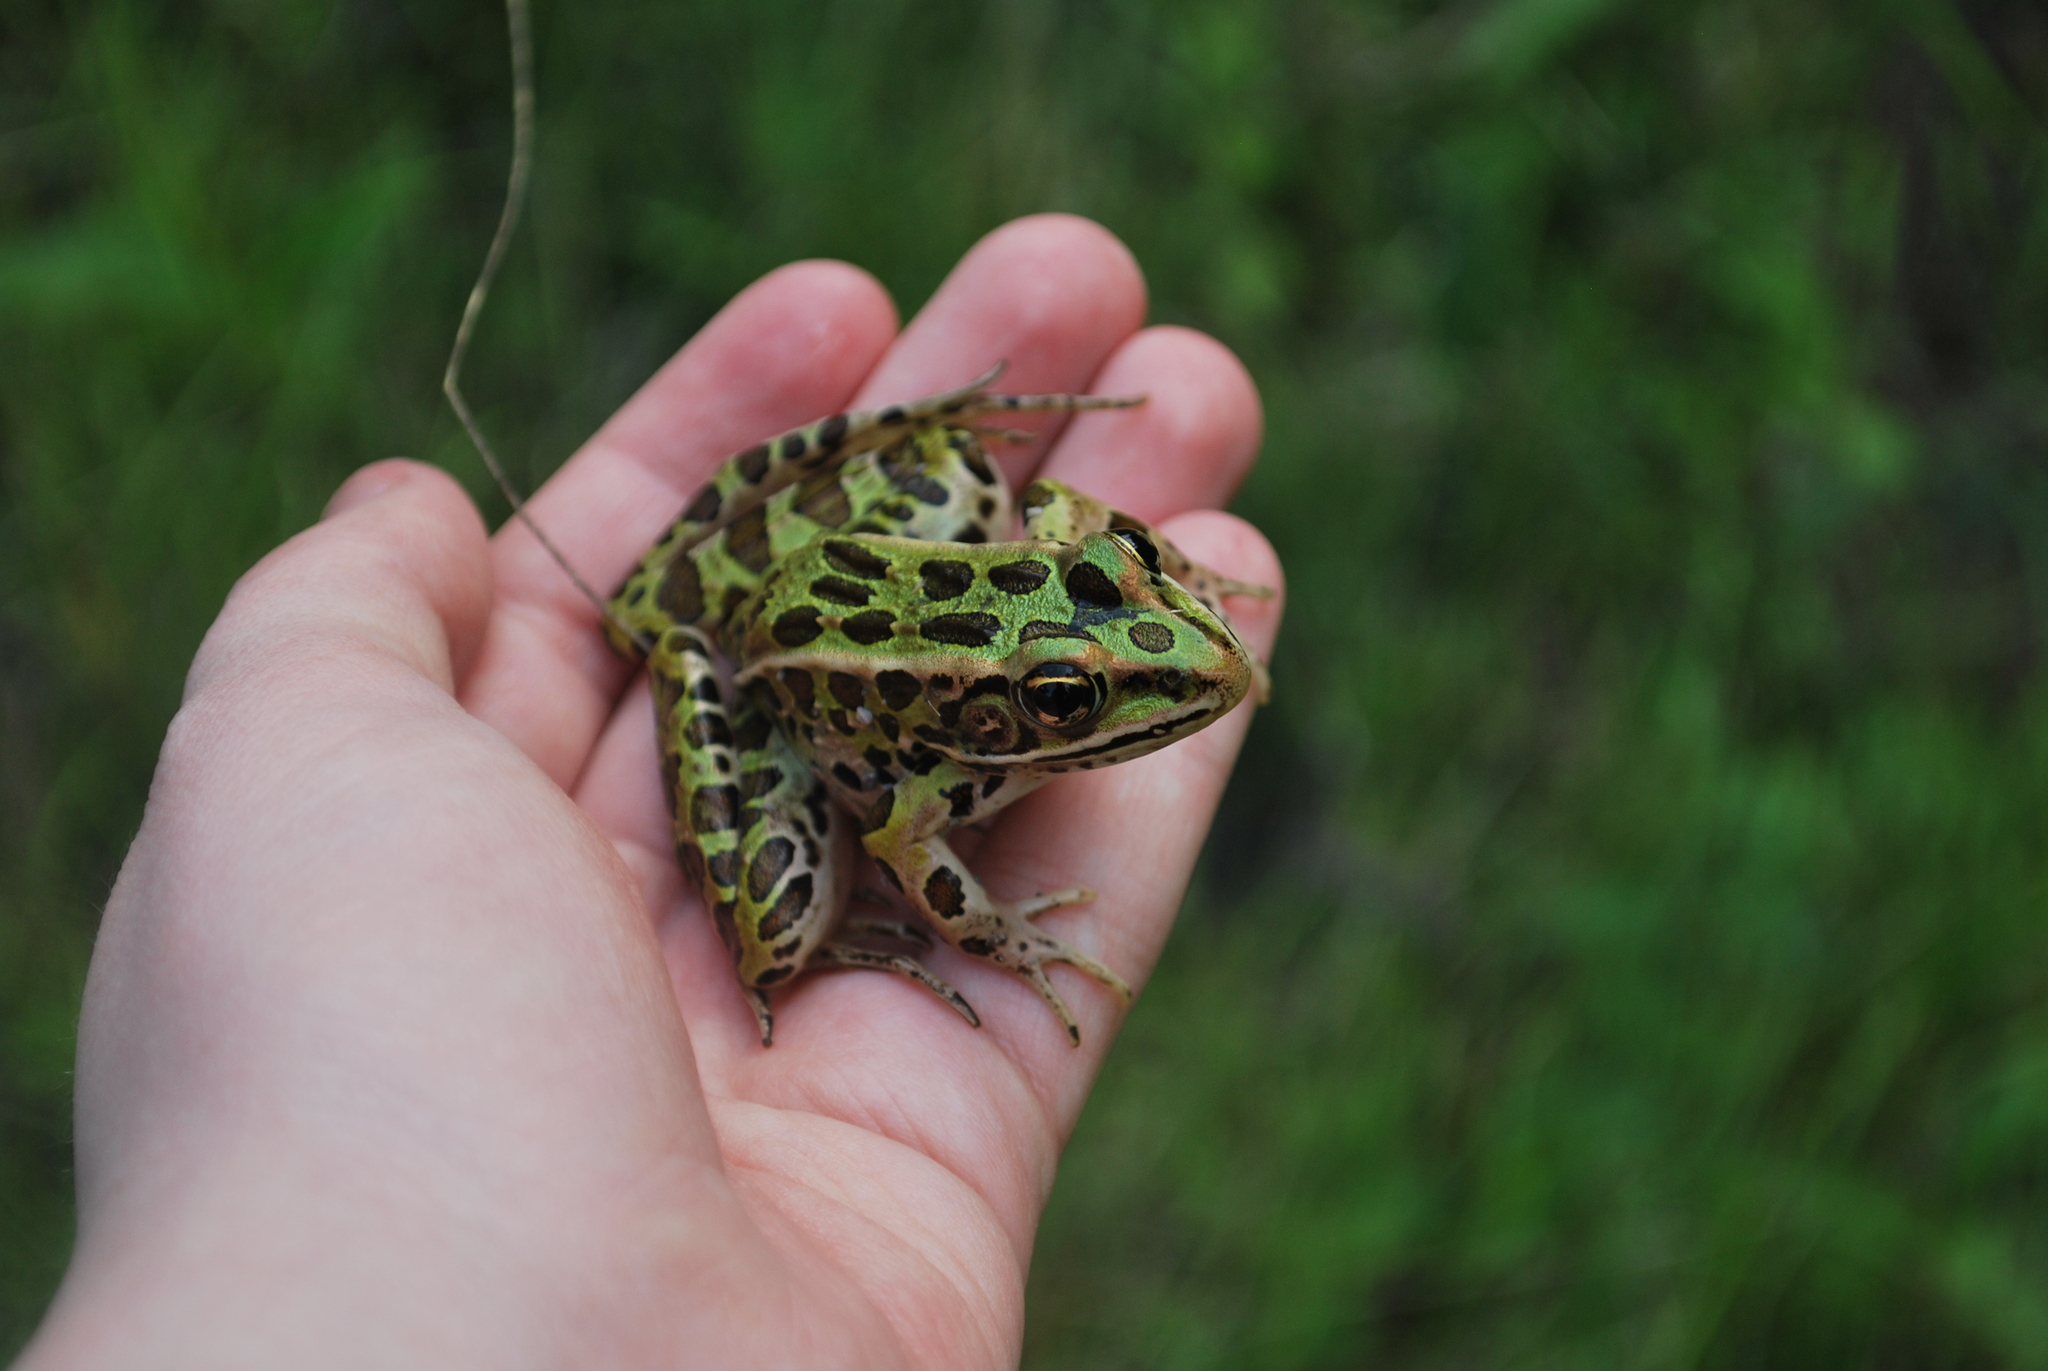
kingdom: Animalia
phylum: Chordata
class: Amphibia
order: Anura
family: Ranidae
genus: Lithobates
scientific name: Lithobates pipiens
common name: Northern leopard frog
